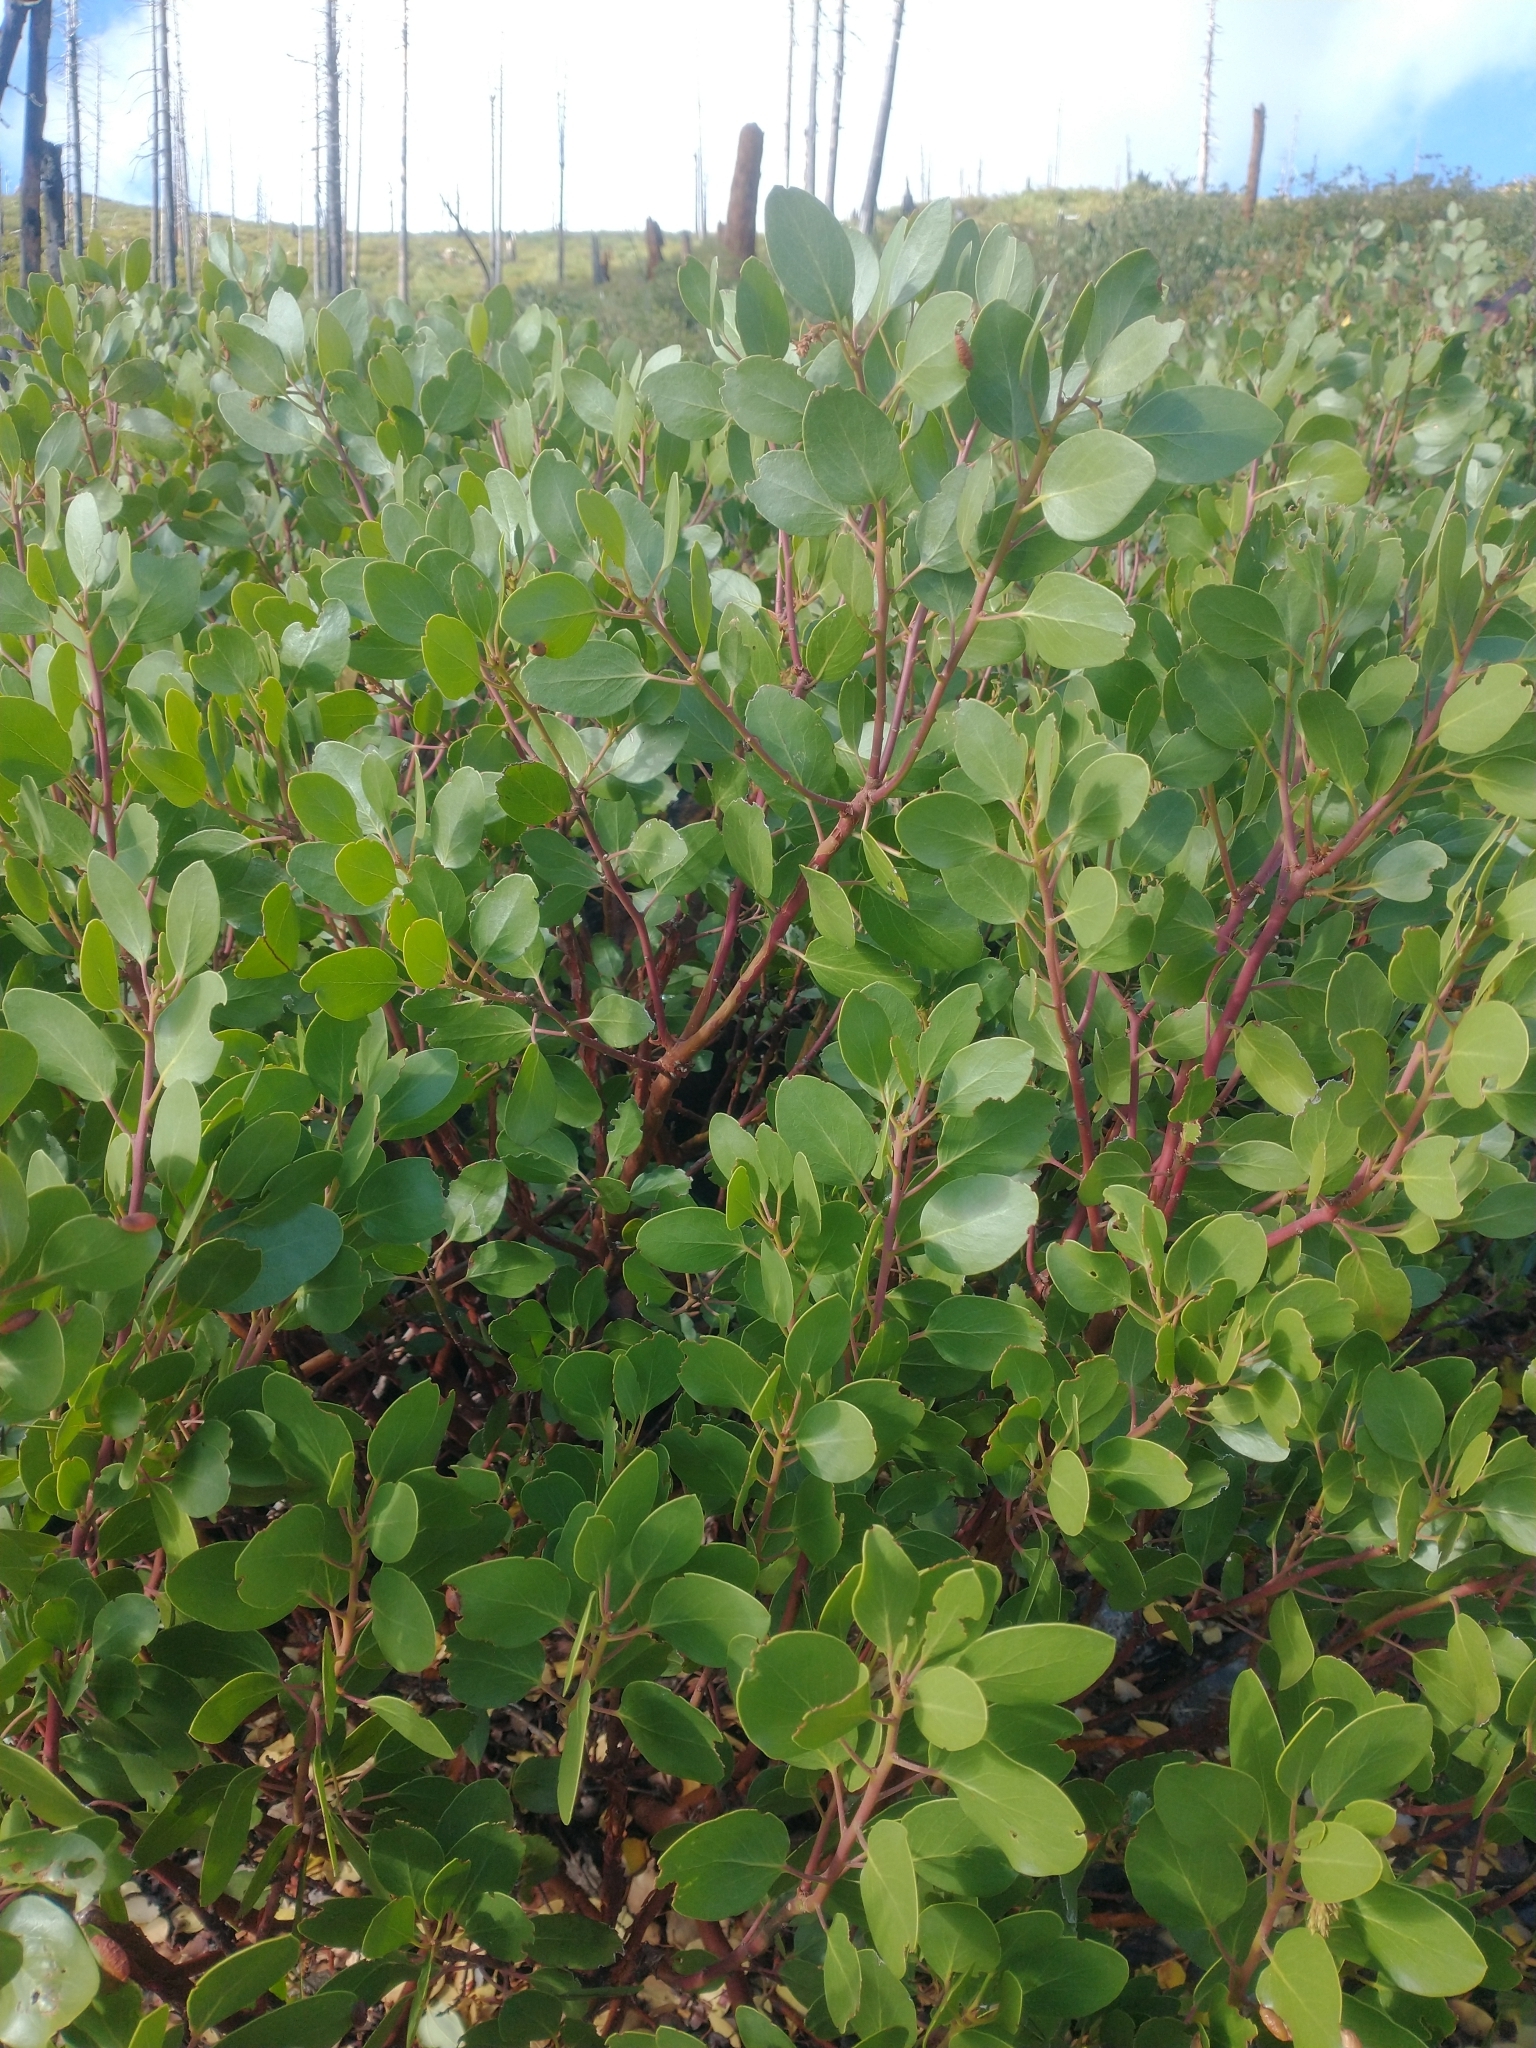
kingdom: Plantae
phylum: Tracheophyta
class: Magnoliopsida
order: Ericales
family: Ericaceae
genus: Arctostaphylos
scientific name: Arctostaphylos patula
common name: Green-leaf manzanita
